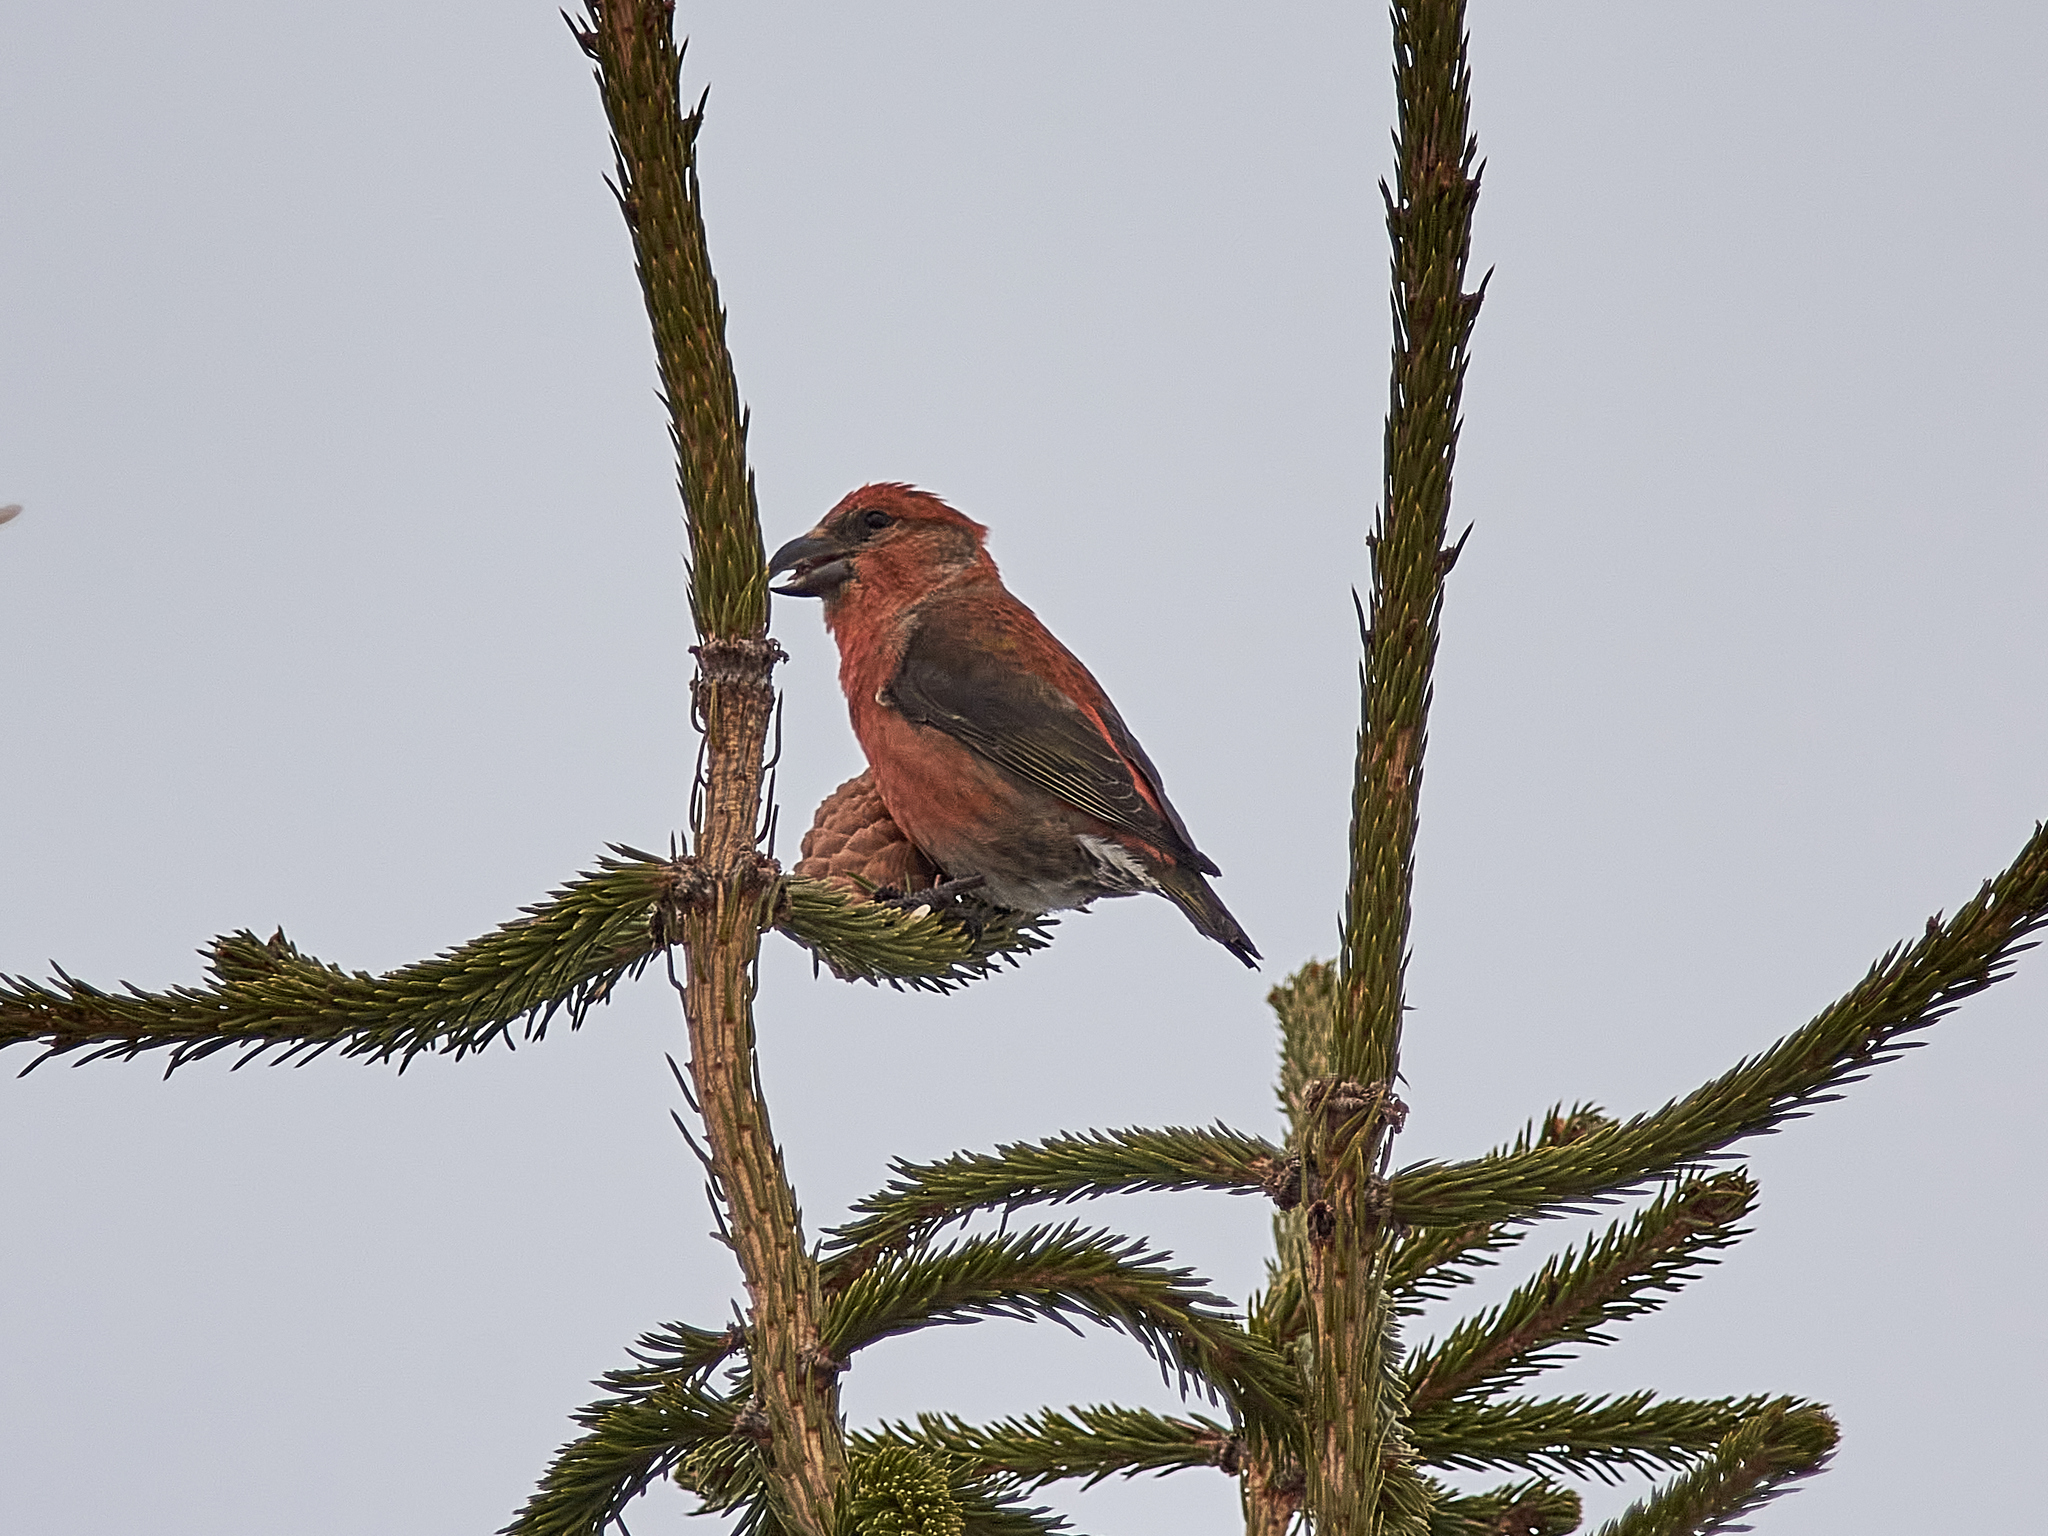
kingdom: Animalia
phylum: Chordata
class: Aves
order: Passeriformes
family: Fringillidae
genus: Loxia
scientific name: Loxia curvirostra
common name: Red crossbill
